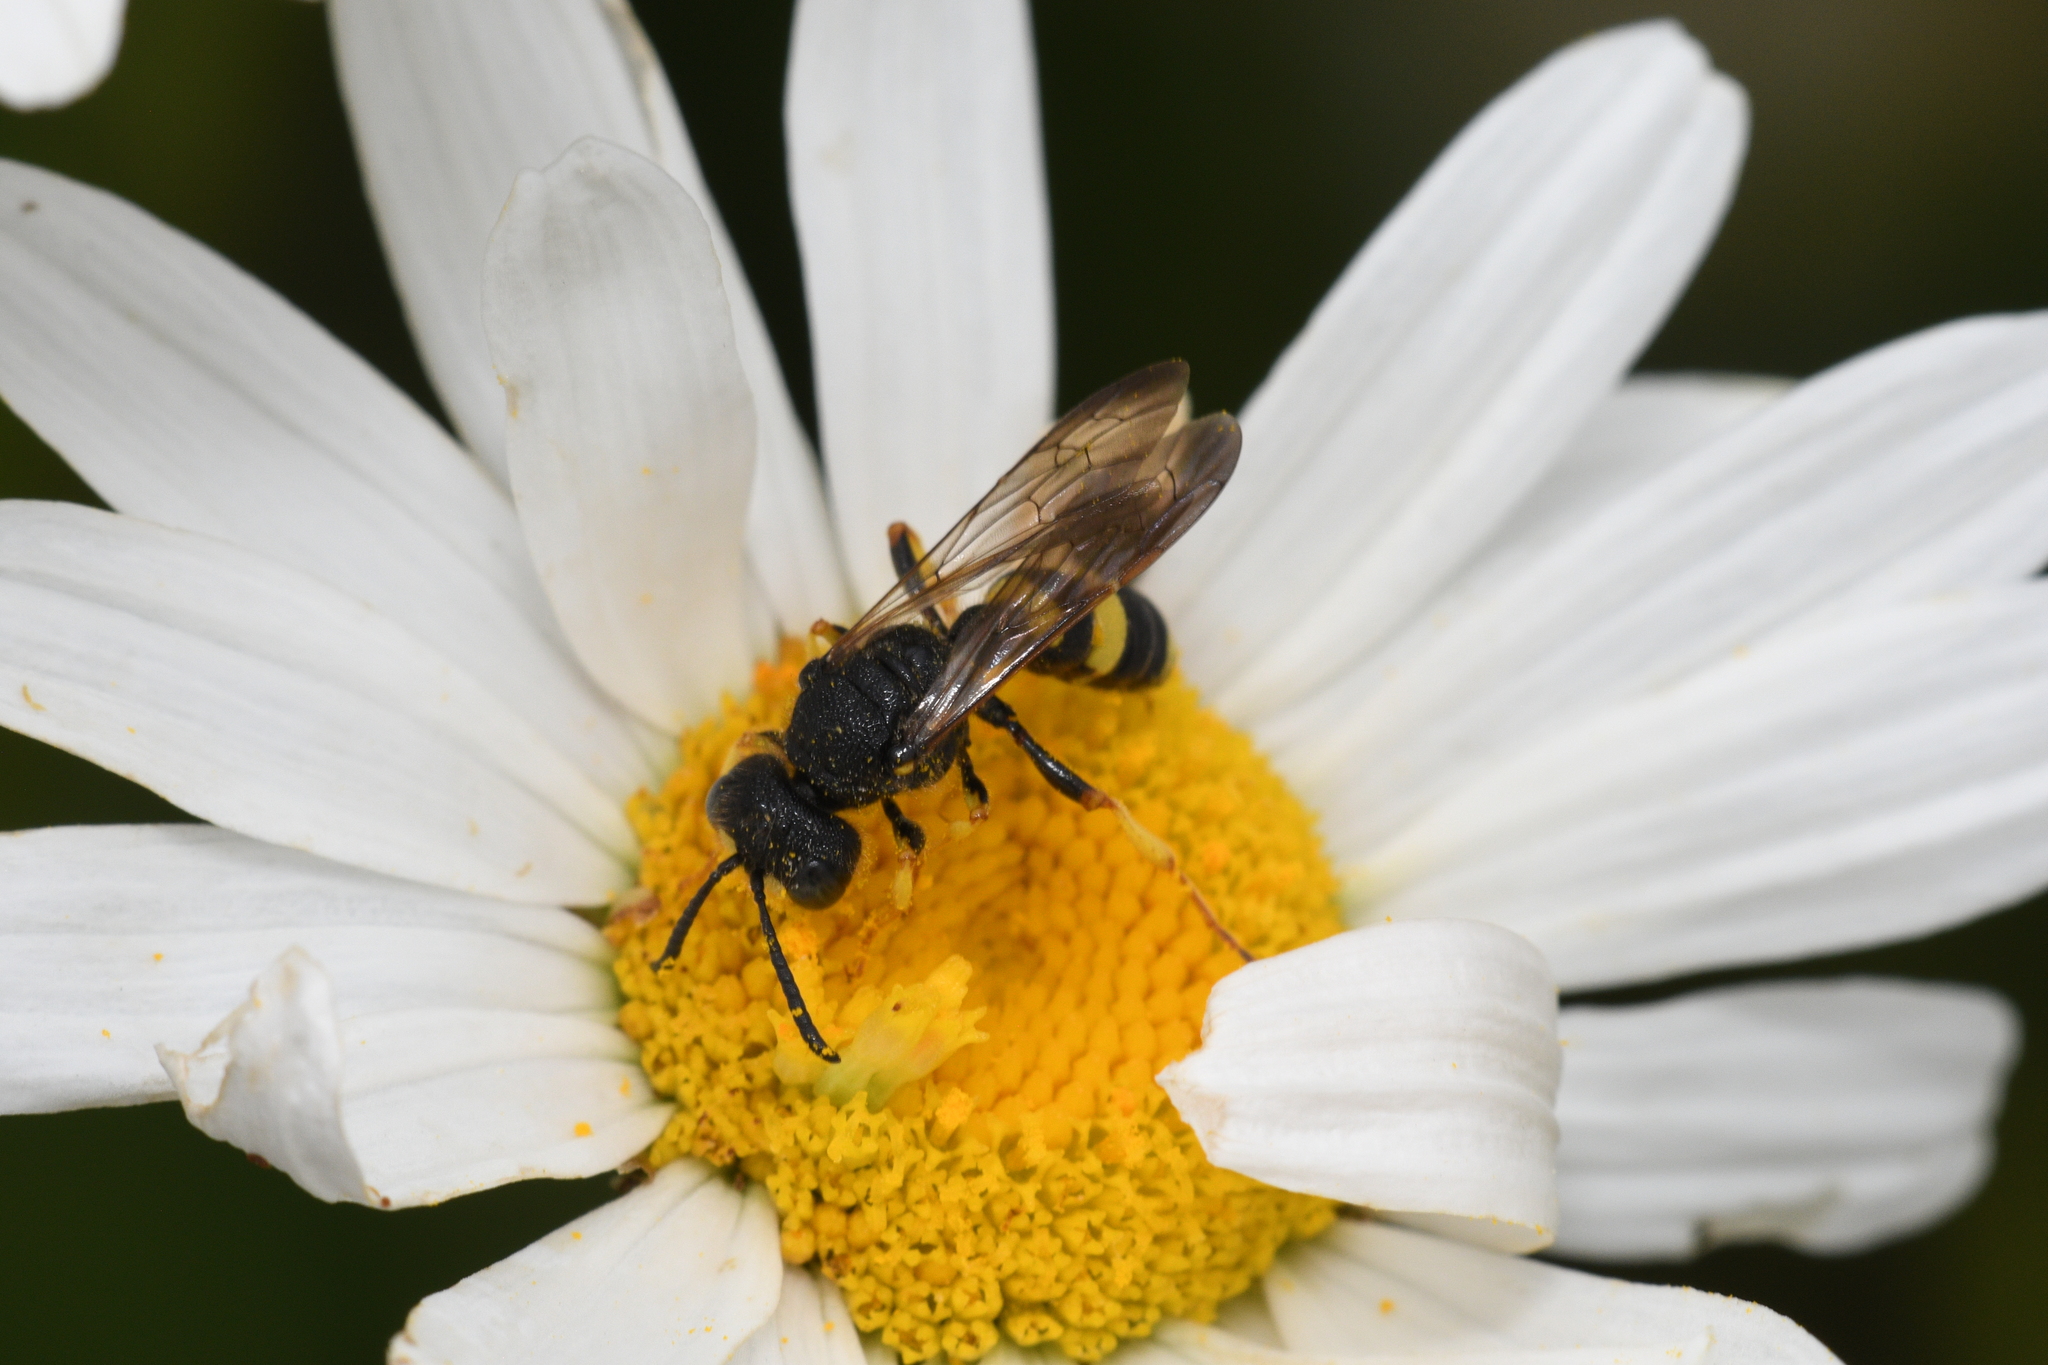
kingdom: Animalia
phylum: Arthropoda
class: Insecta
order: Hymenoptera
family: Crabronidae
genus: Cerceris
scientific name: Cerceris rybyensis
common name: Ornate tailed digger wasp
